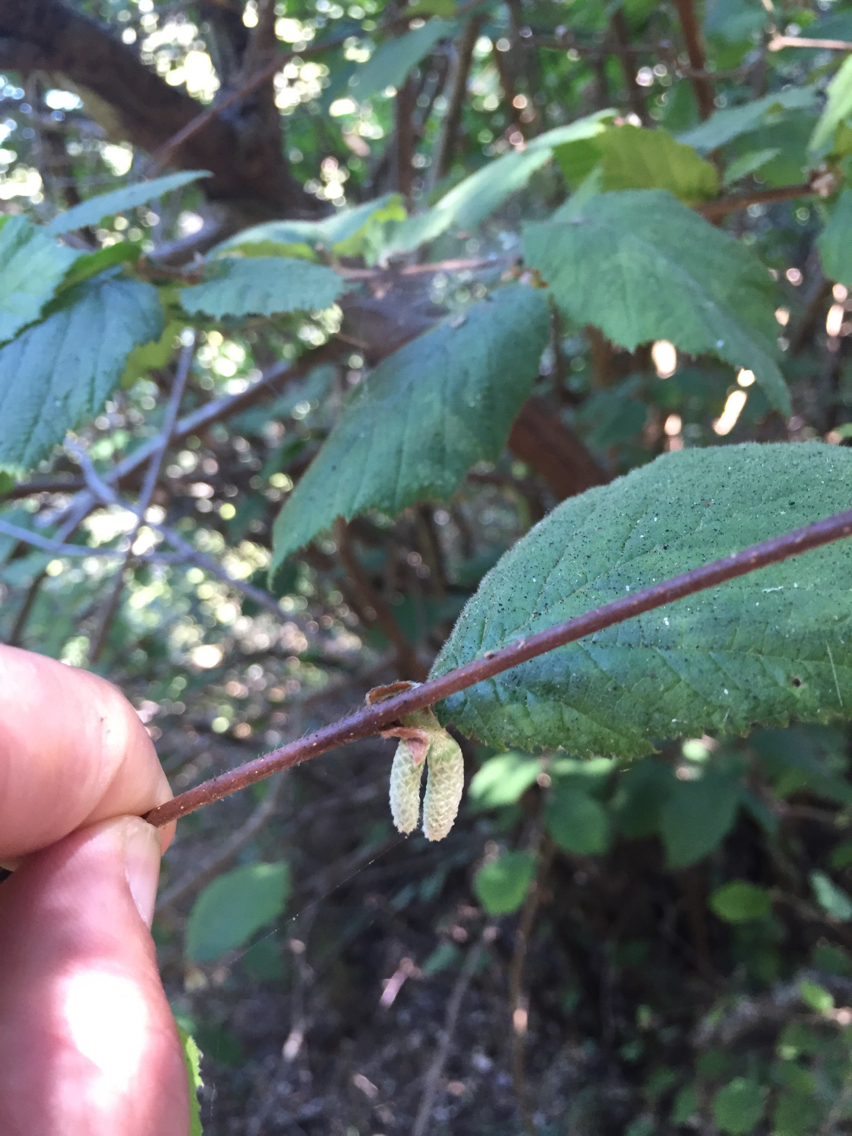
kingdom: Plantae
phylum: Tracheophyta
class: Magnoliopsida
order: Fagales
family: Betulaceae
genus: Corylus
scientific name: Corylus cornuta
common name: Beaked hazel
